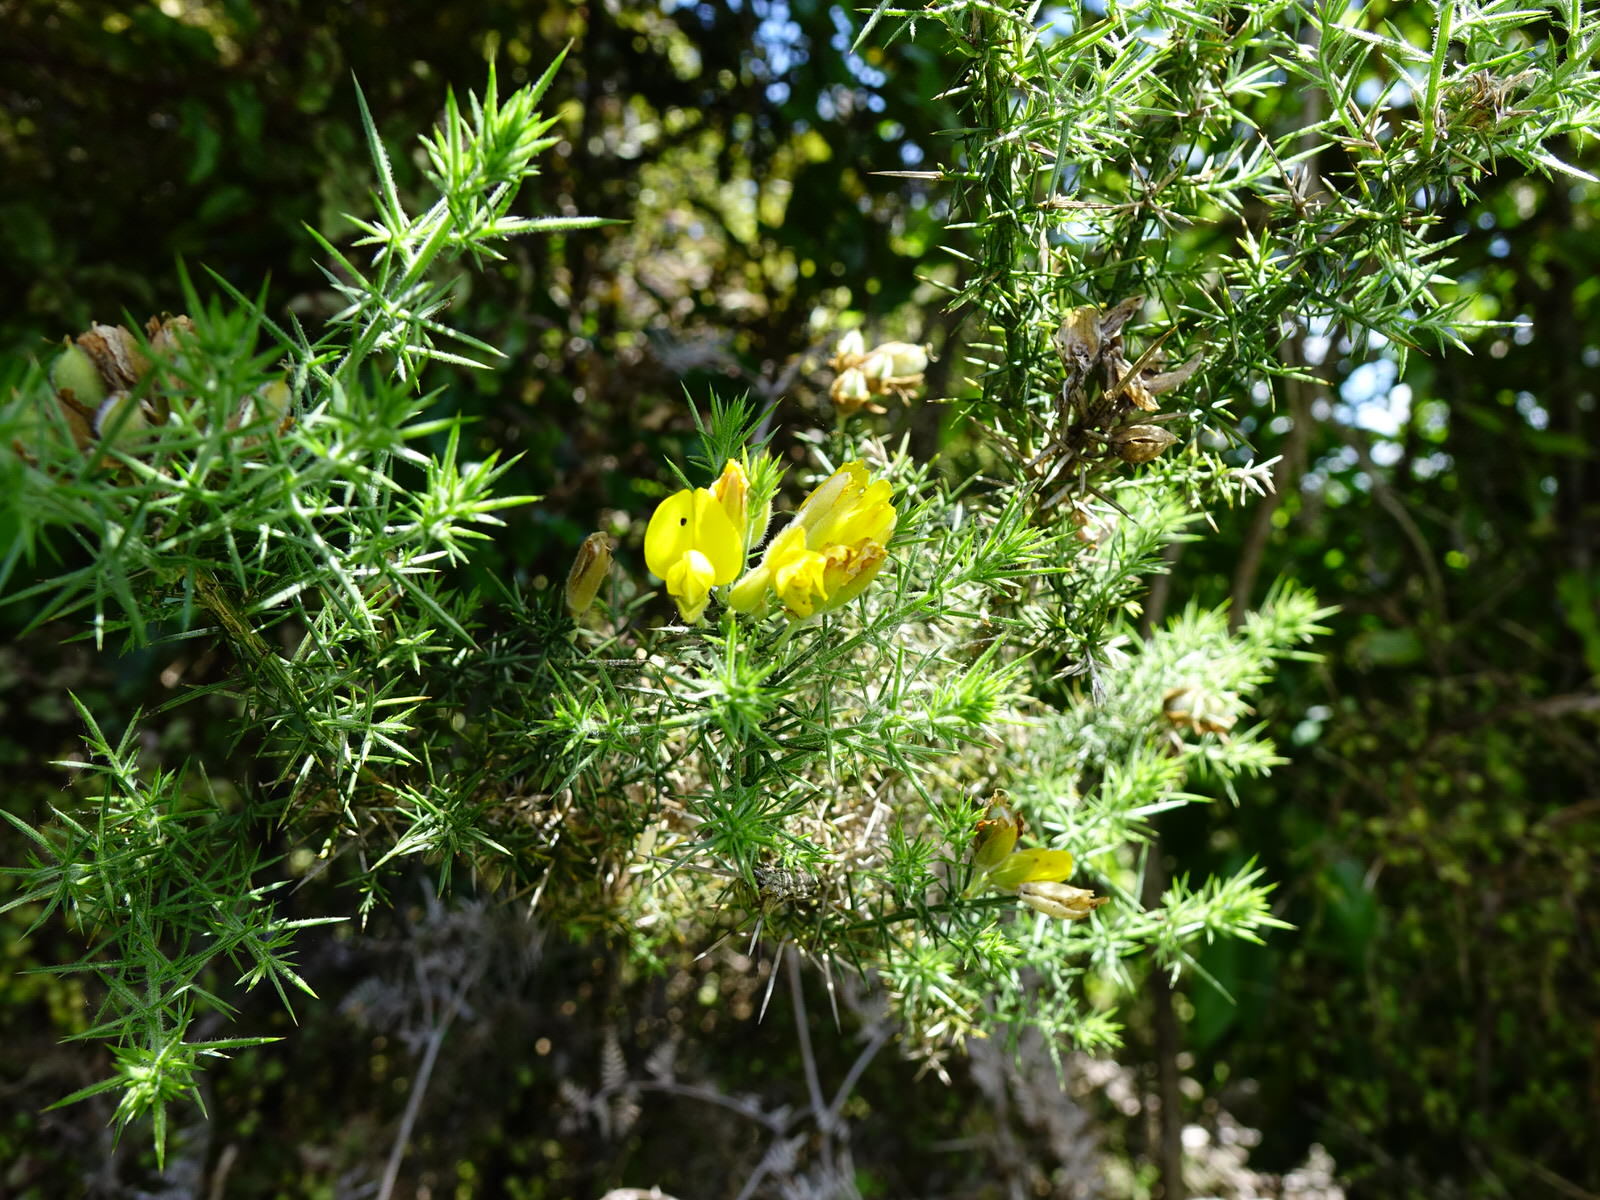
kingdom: Plantae
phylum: Tracheophyta
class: Magnoliopsida
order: Fabales
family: Fabaceae
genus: Ulex
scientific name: Ulex europaeus
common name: Common gorse
